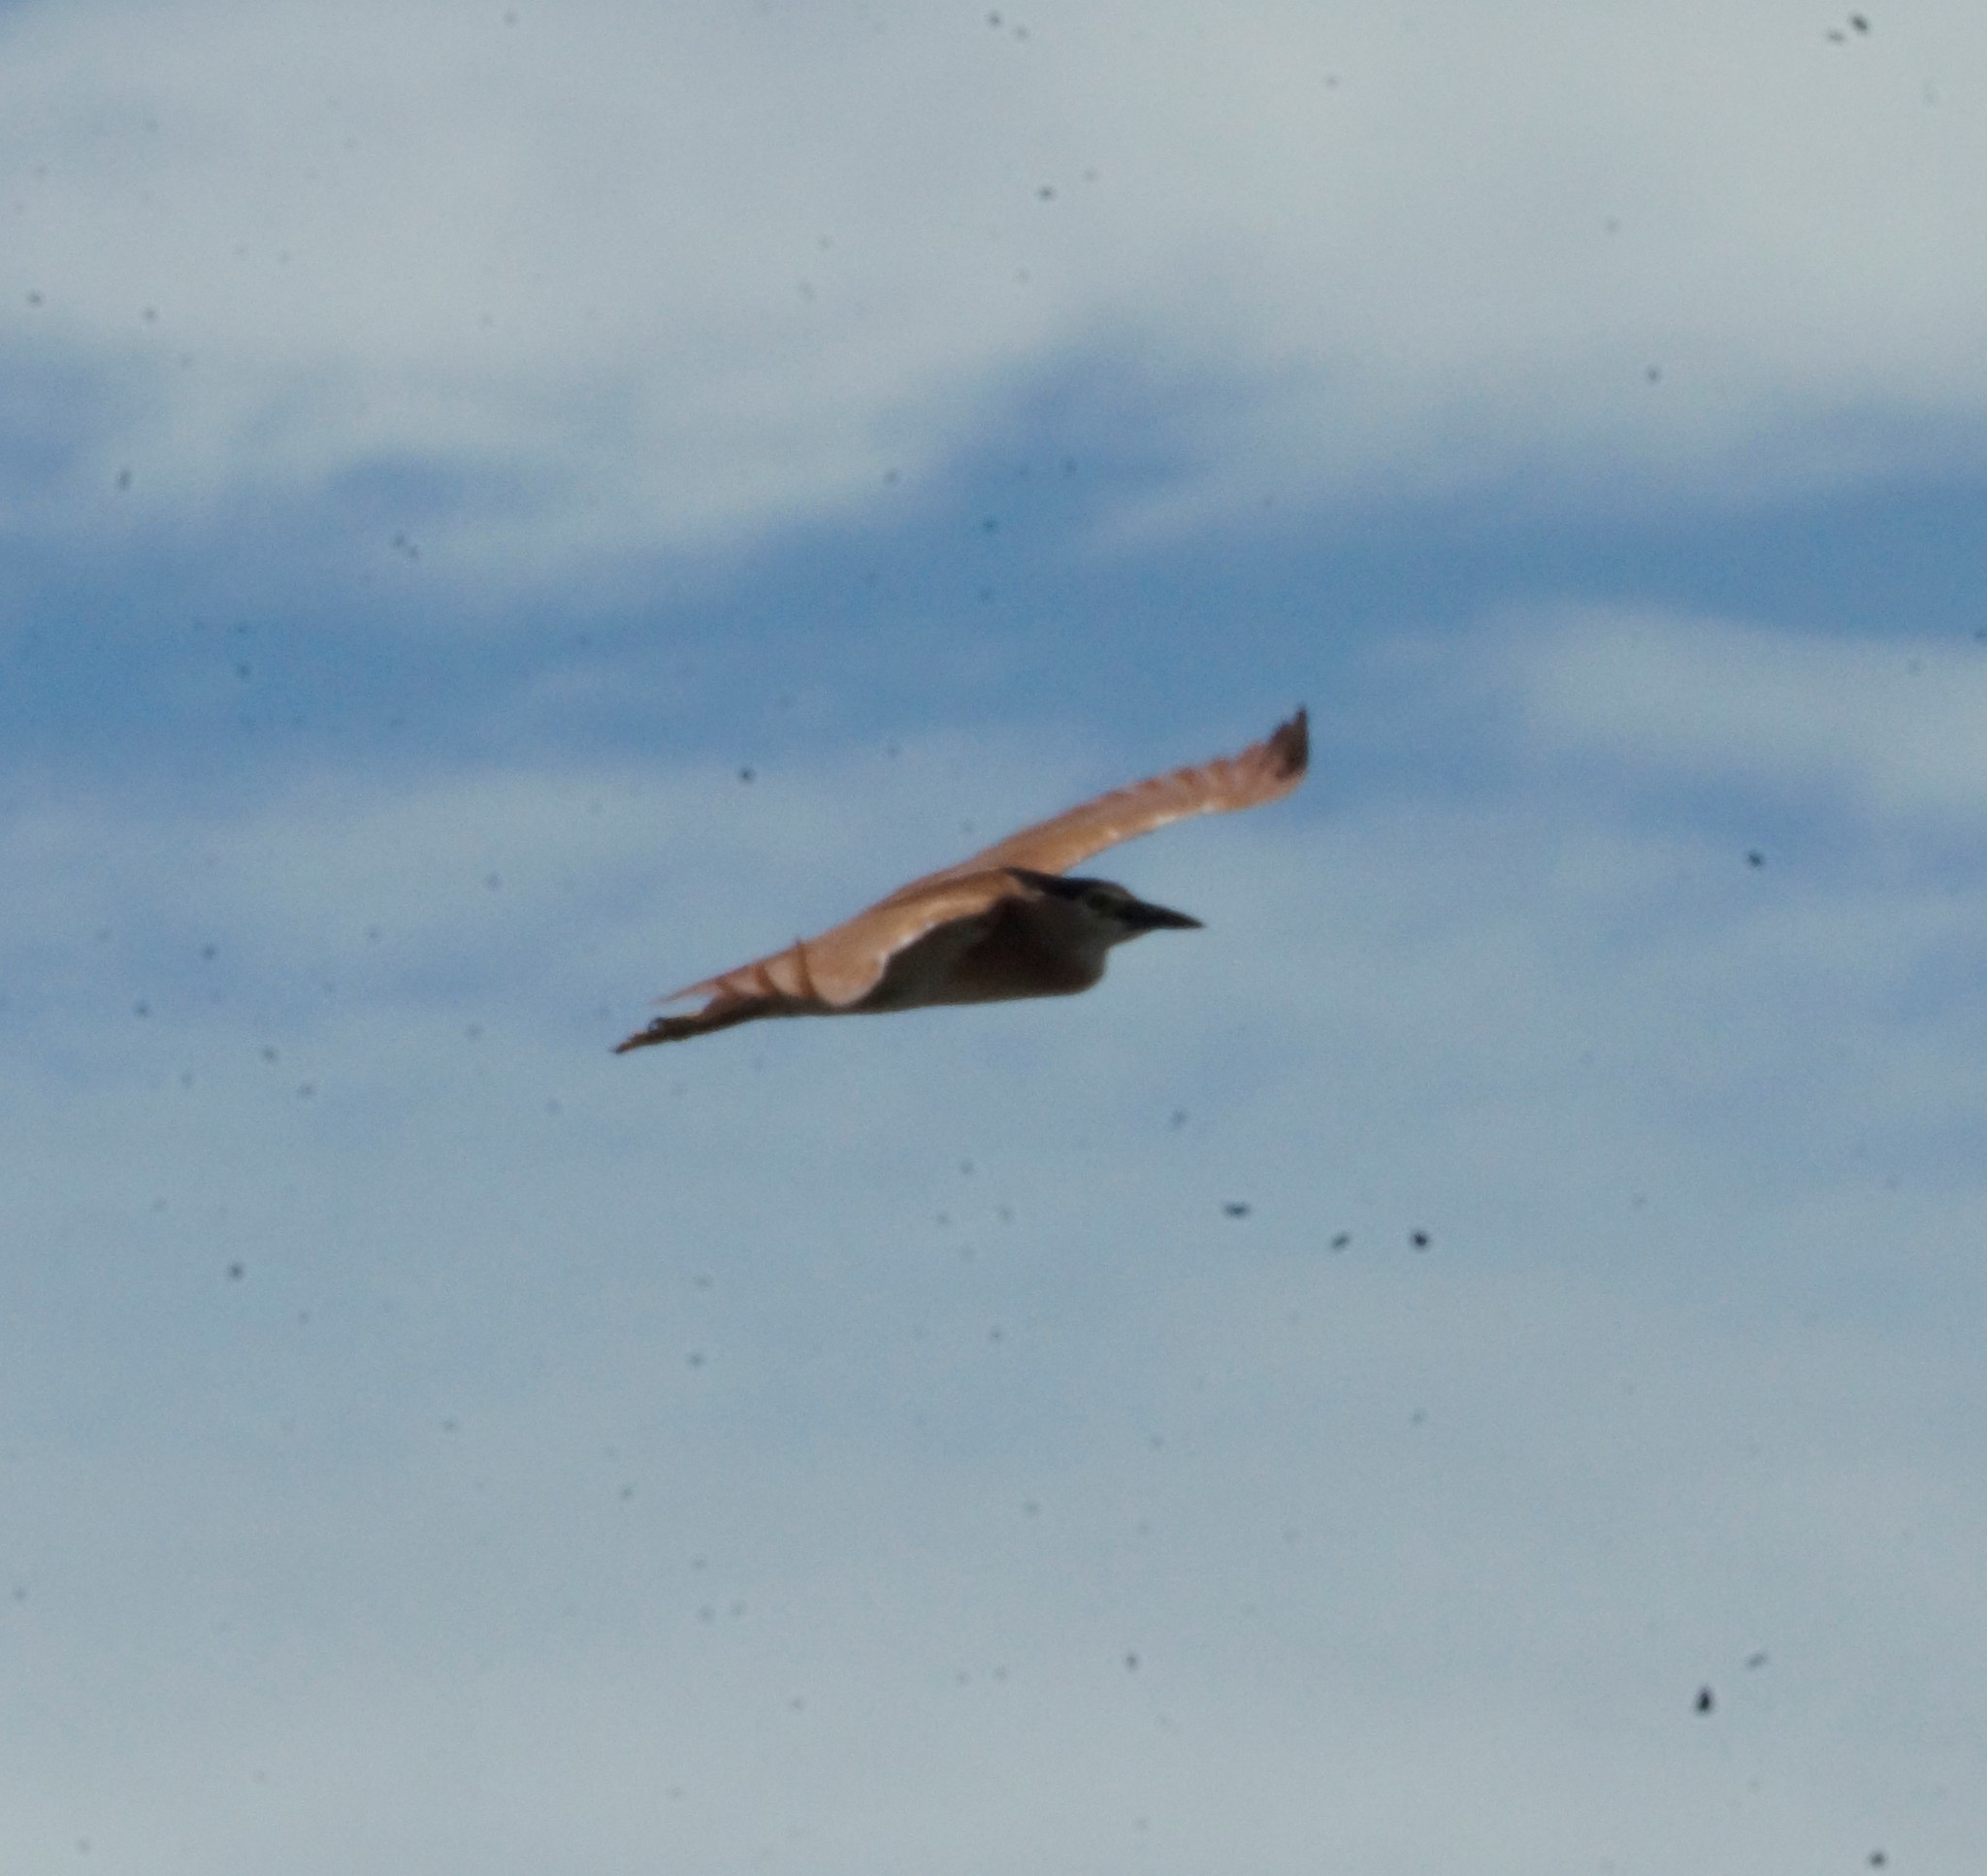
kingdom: Animalia
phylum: Chordata
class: Aves
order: Pelecaniformes
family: Ardeidae
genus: Nycticorax
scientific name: Nycticorax caledonicus
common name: Rufous night-heron
